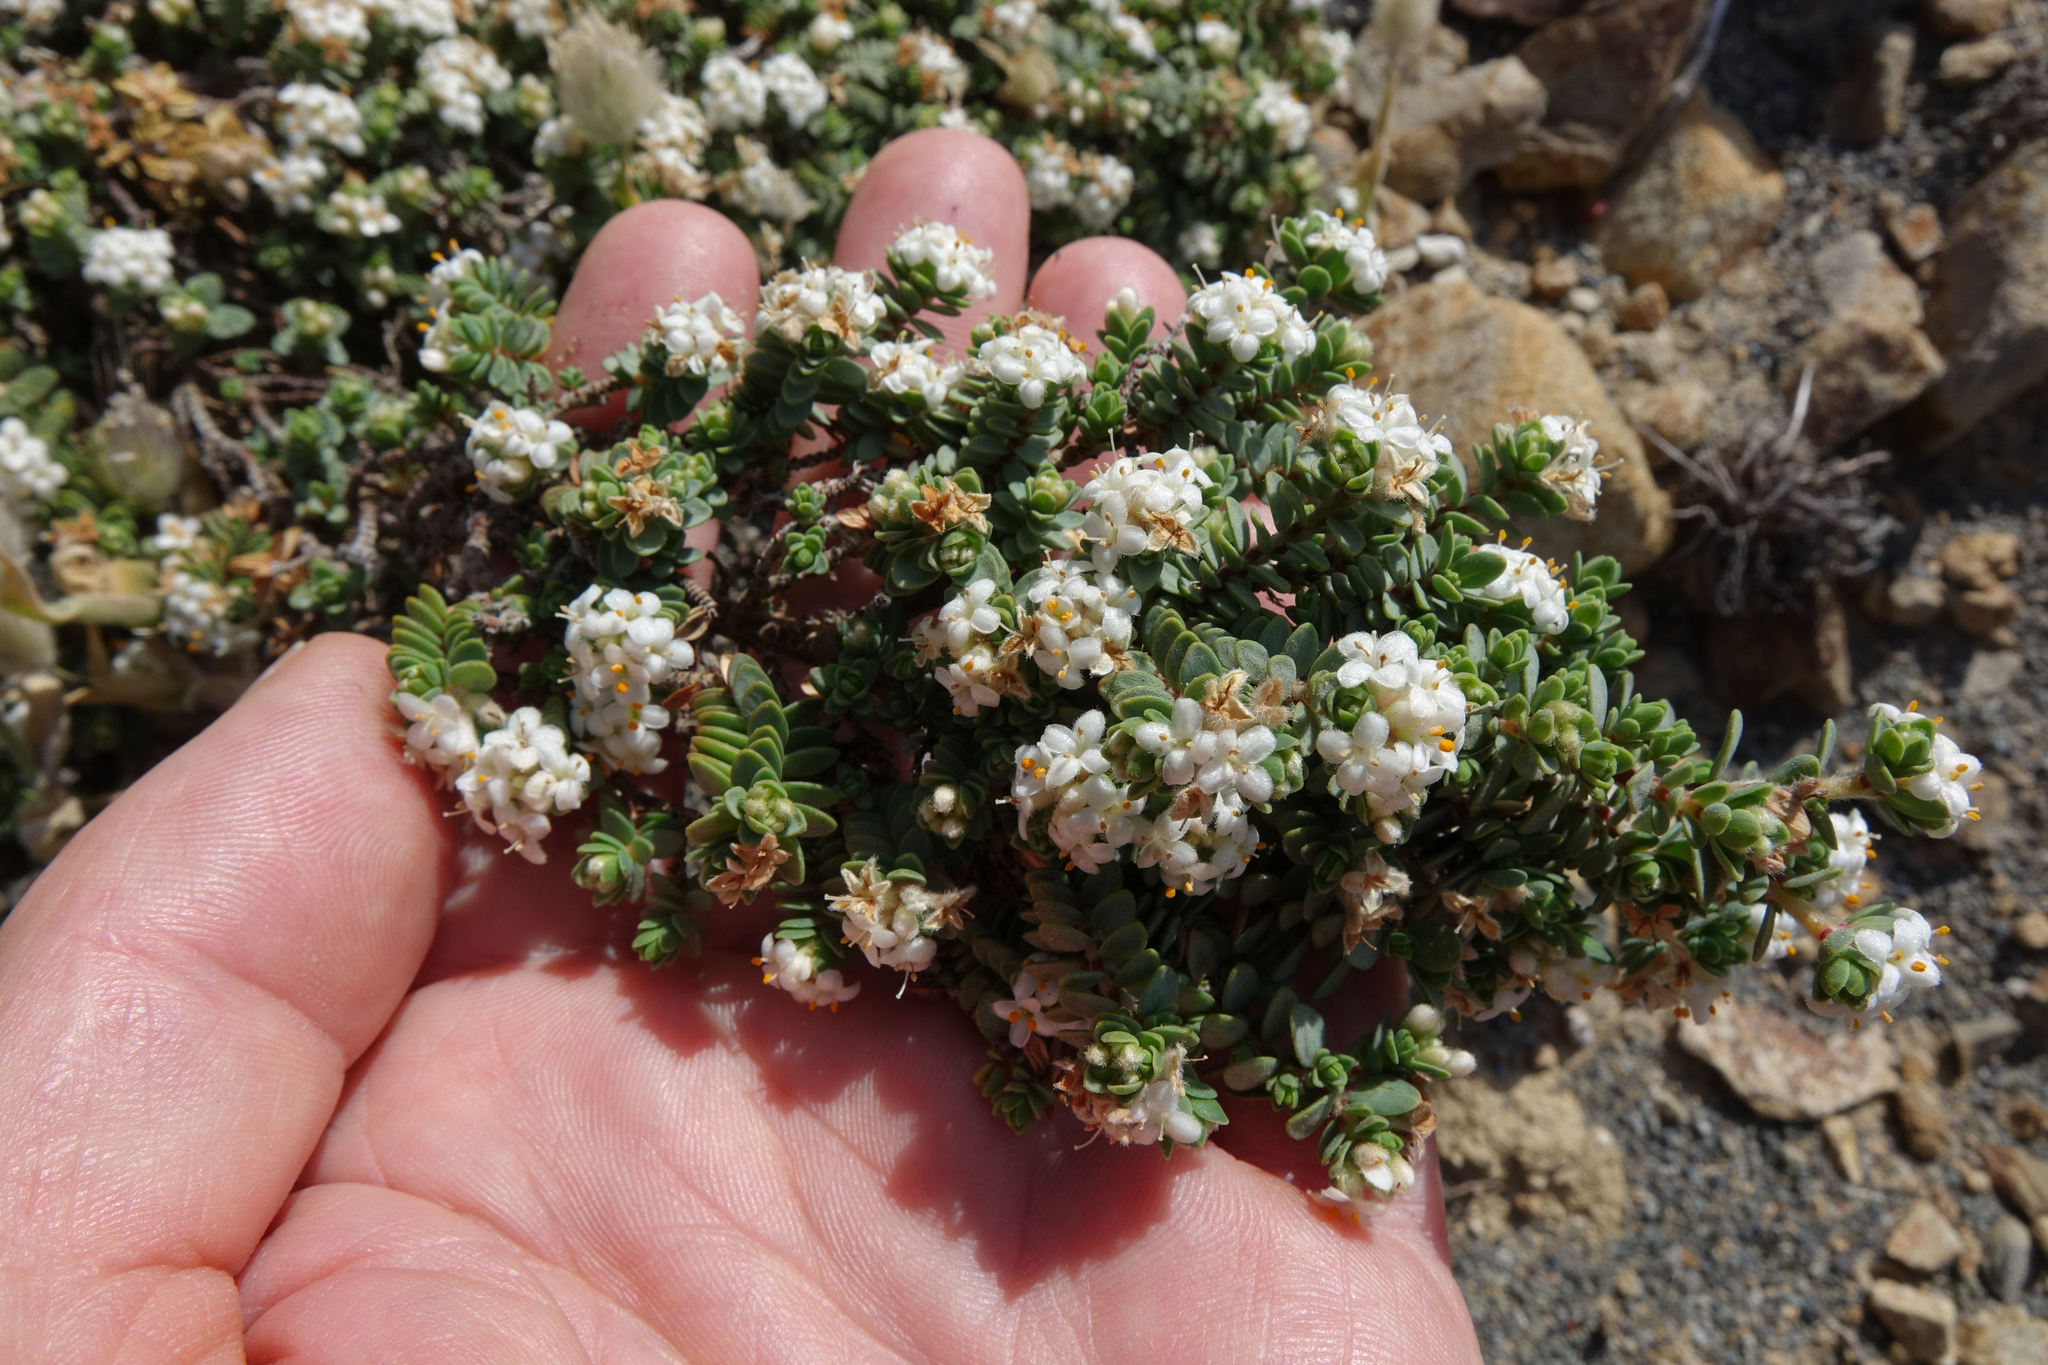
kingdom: Plantae
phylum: Tracheophyta
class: Magnoliopsida
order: Malvales
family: Thymelaeaceae
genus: Pimelea
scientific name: Pimelea carnosa
